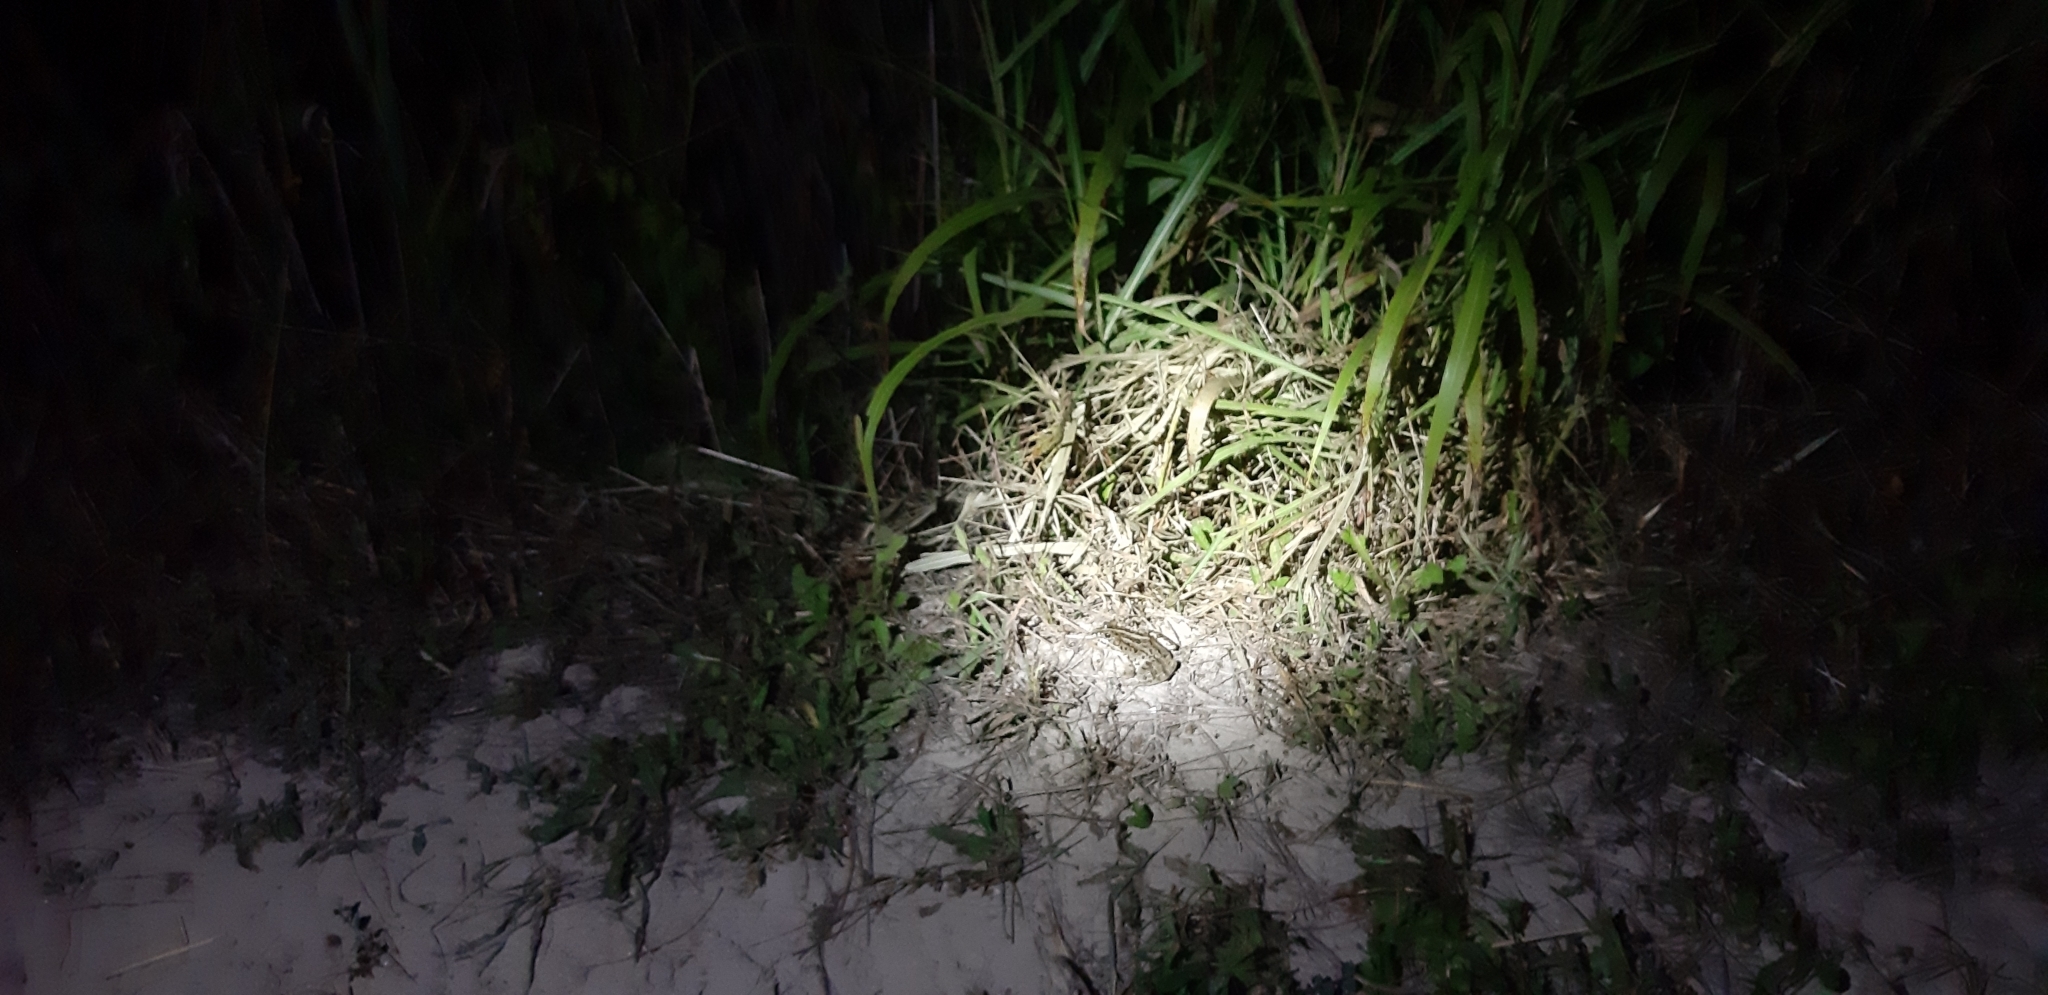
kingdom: Animalia
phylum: Chordata
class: Amphibia
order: Anura
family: Ranidae
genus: Pelophylax
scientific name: Pelophylax
